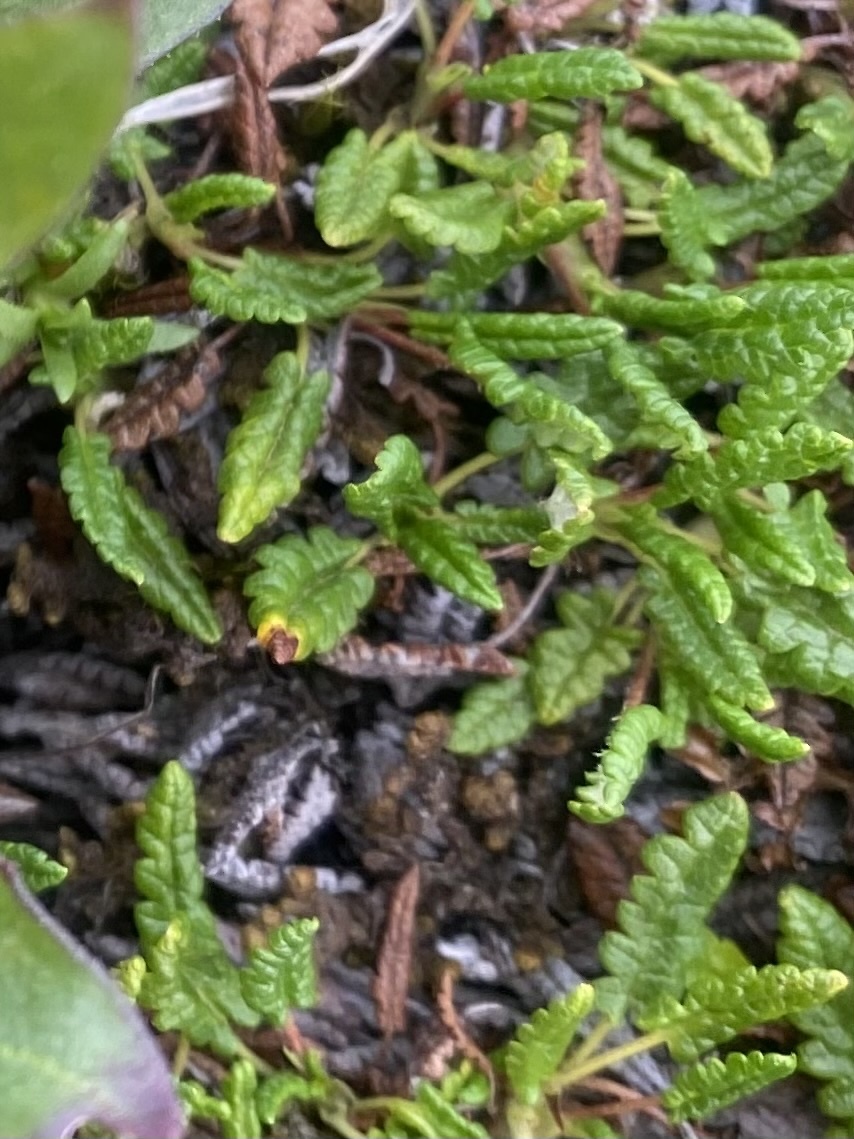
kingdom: Plantae
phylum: Tracheophyta
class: Magnoliopsida
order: Rosales
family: Rosaceae
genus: Dryas
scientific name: Dryas octopetala
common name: Eight-petal mountain-avens
